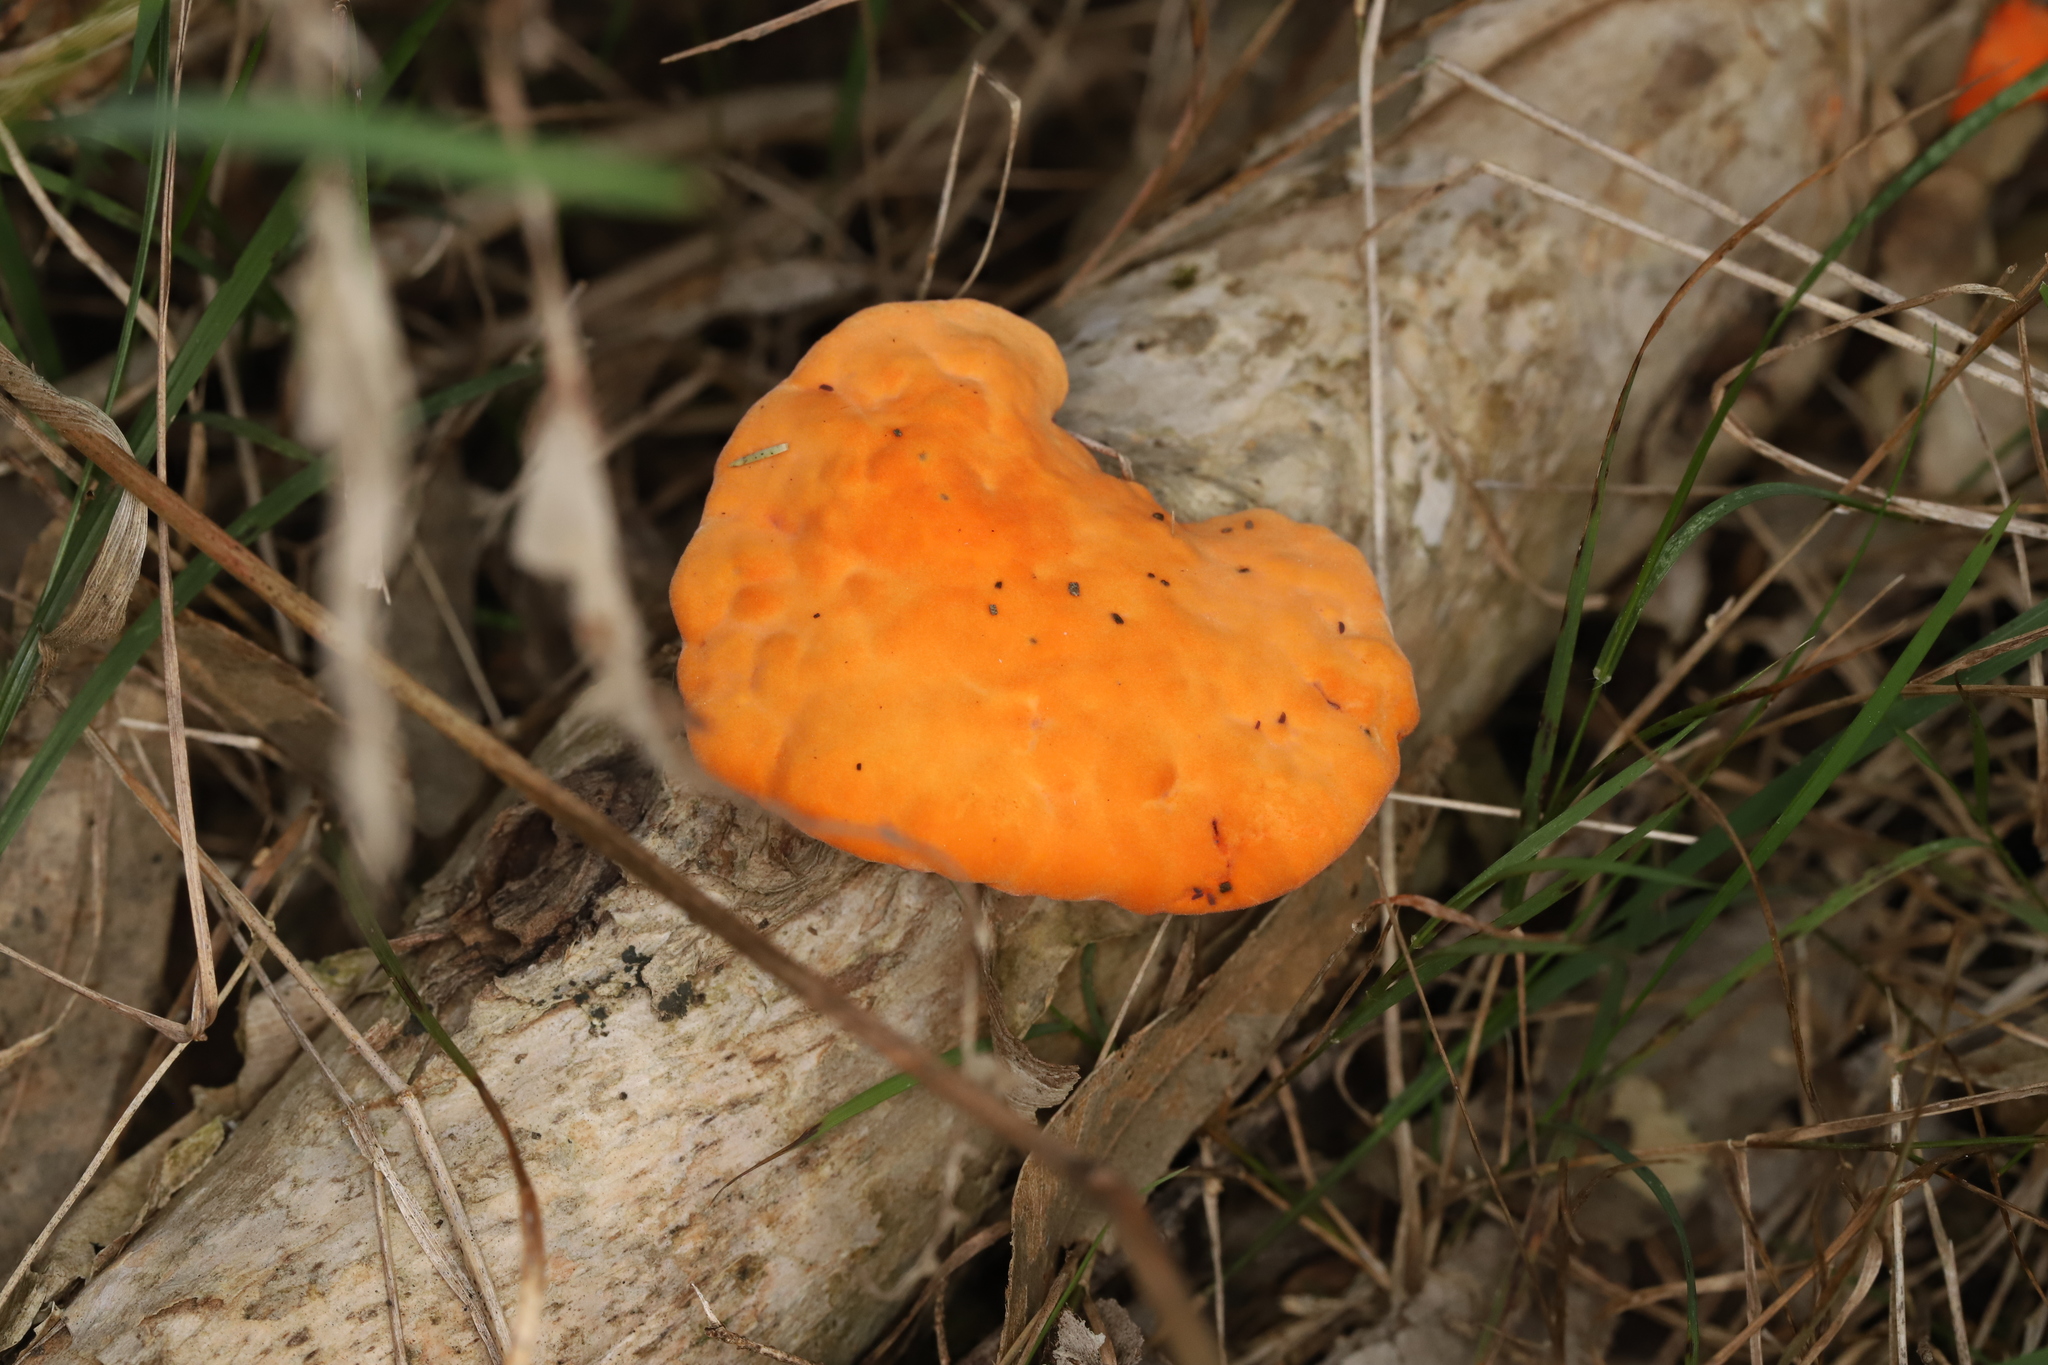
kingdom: Fungi
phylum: Basidiomycota
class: Agaricomycetes
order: Polyporales
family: Polyporaceae
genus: Trametes
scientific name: Trametes coccinea
